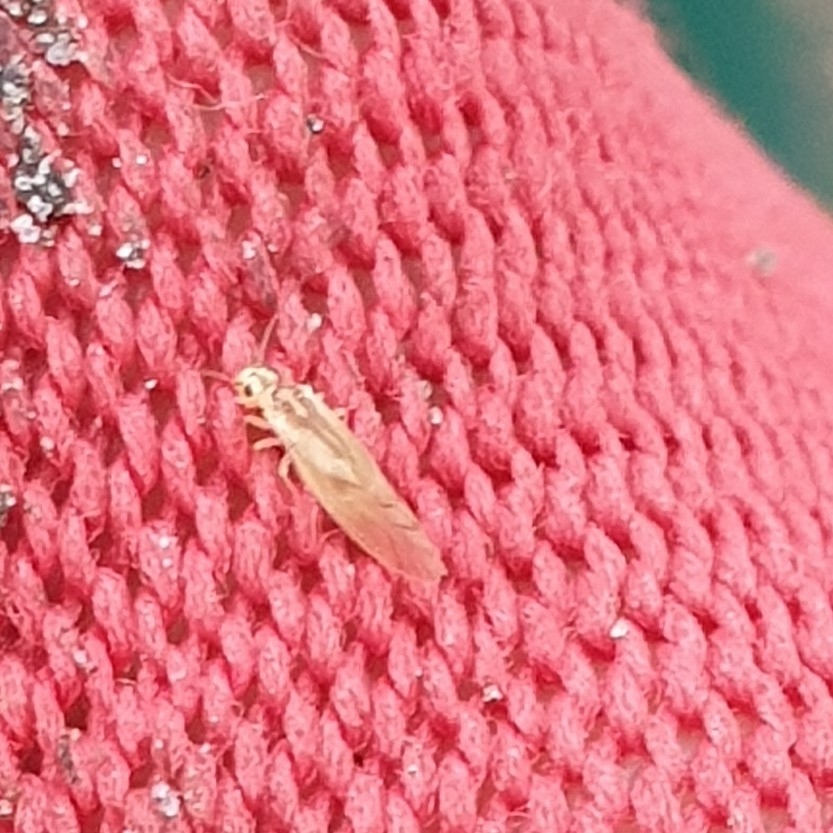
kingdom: Animalia
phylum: Arthropoda
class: Insecta
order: Psocodea
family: Caeciliusidae
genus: Valenzuela
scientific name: Valenzuela flavidus
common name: Yellow barklouse
